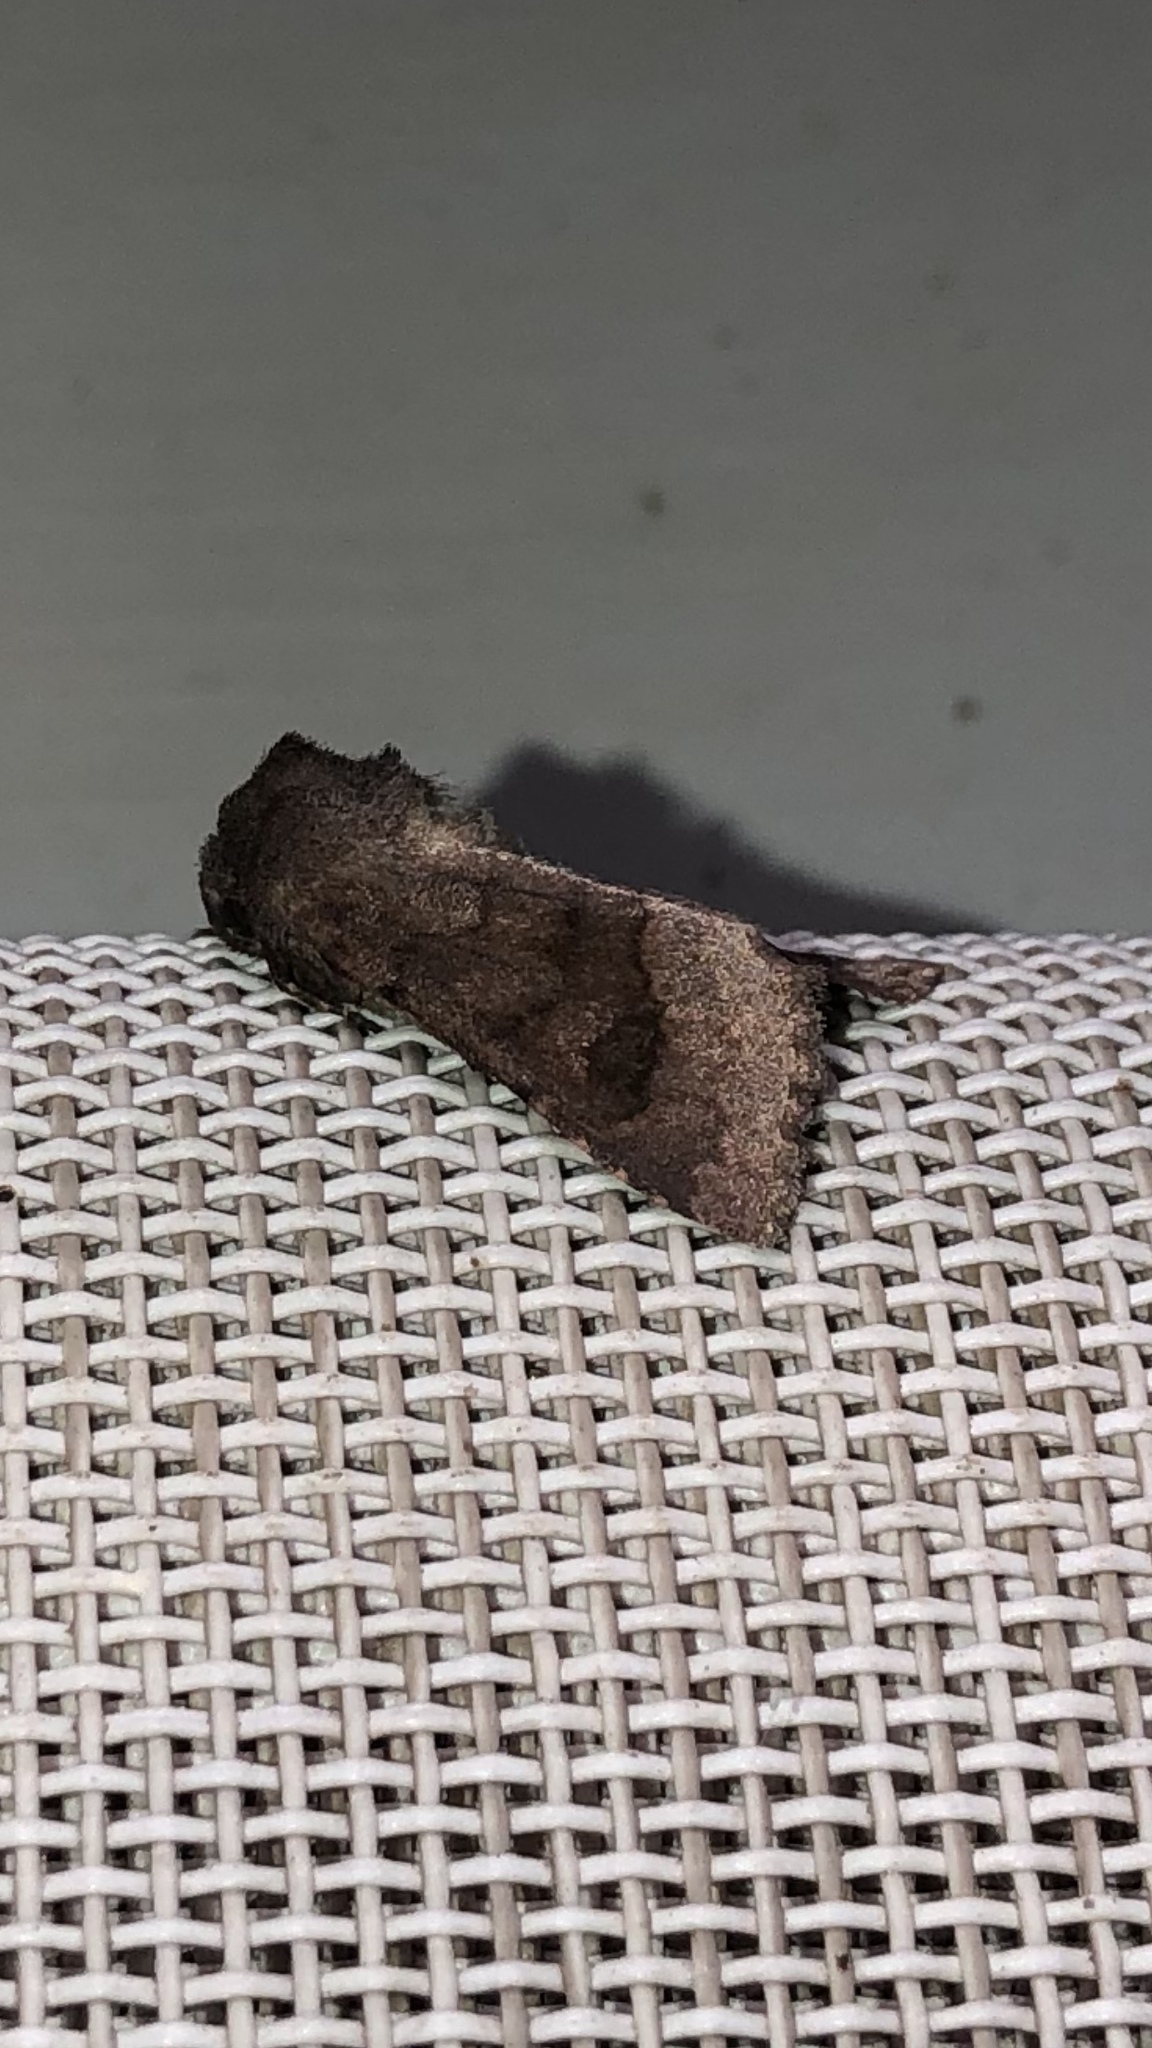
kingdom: Animalia
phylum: Arthropoda
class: Insecta
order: Lepidoptera
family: Noctuidae
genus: Nephelodes
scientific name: Nephelodes minians
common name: Bronzed cutworm
